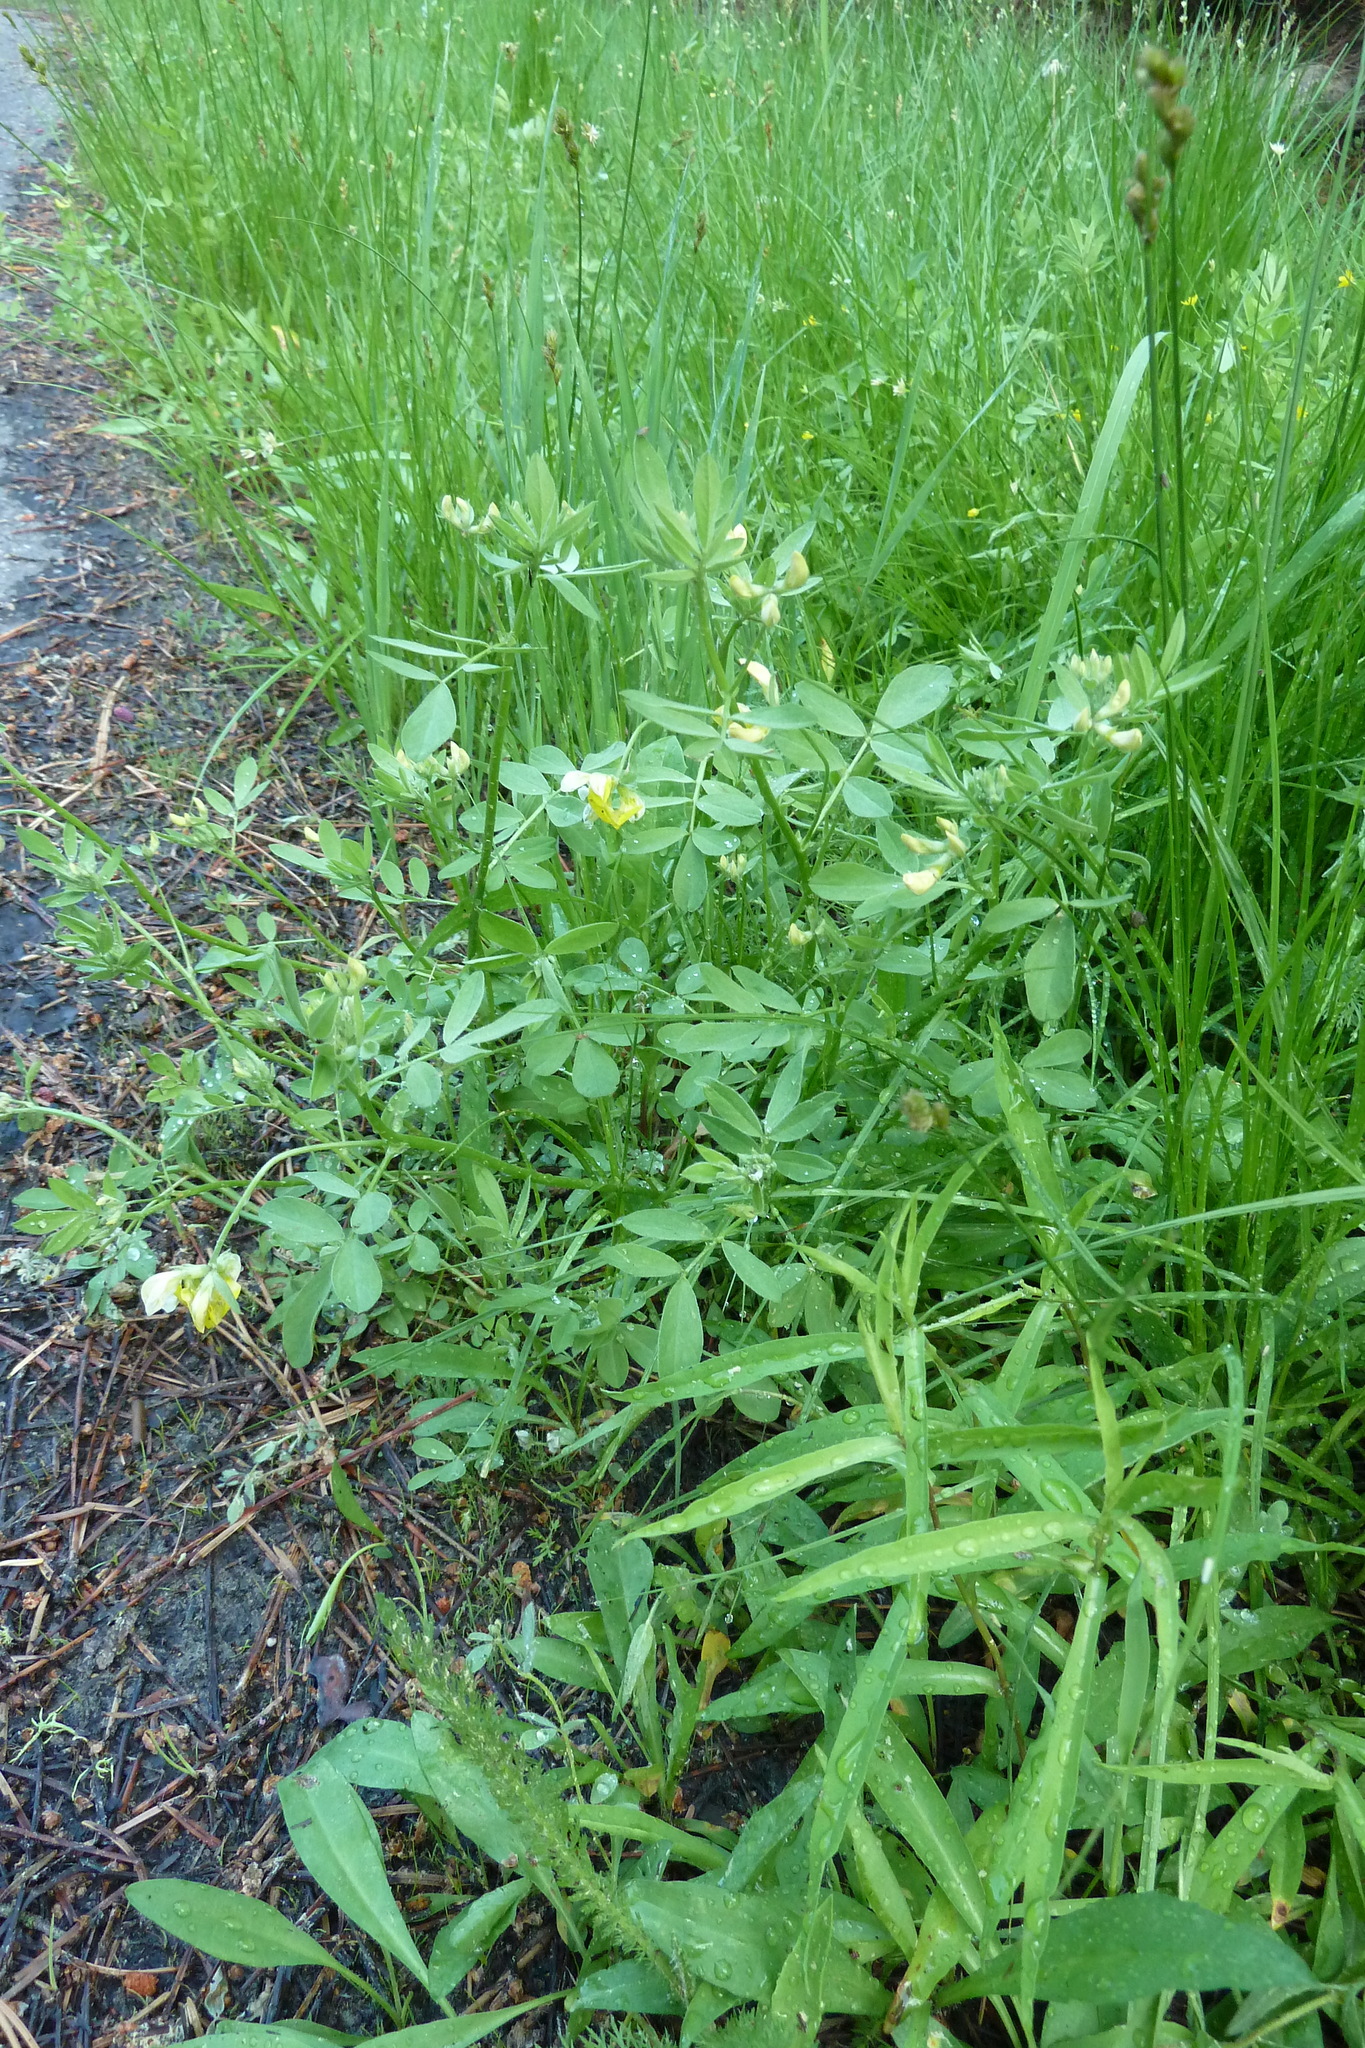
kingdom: Plantae
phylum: Tracheophyta
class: Magnoliopsida
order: Fabales
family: Fabaceae
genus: Hosackia
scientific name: Hosackia oblongifolia
